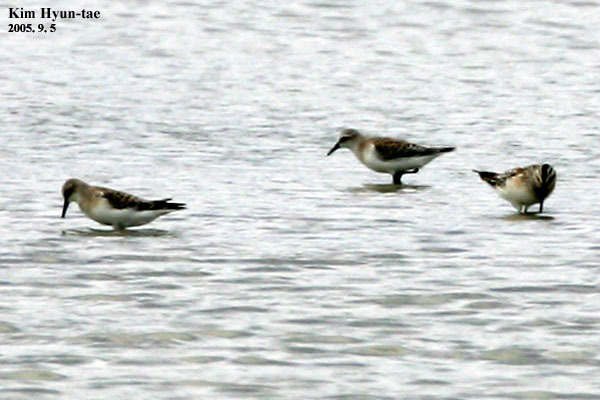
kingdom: Animalia
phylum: Chordata
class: Aves
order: Charadriiformes
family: Scolopacidae
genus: Calidris
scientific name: Calidris falcinellus
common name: Broad-billed sandpiper
